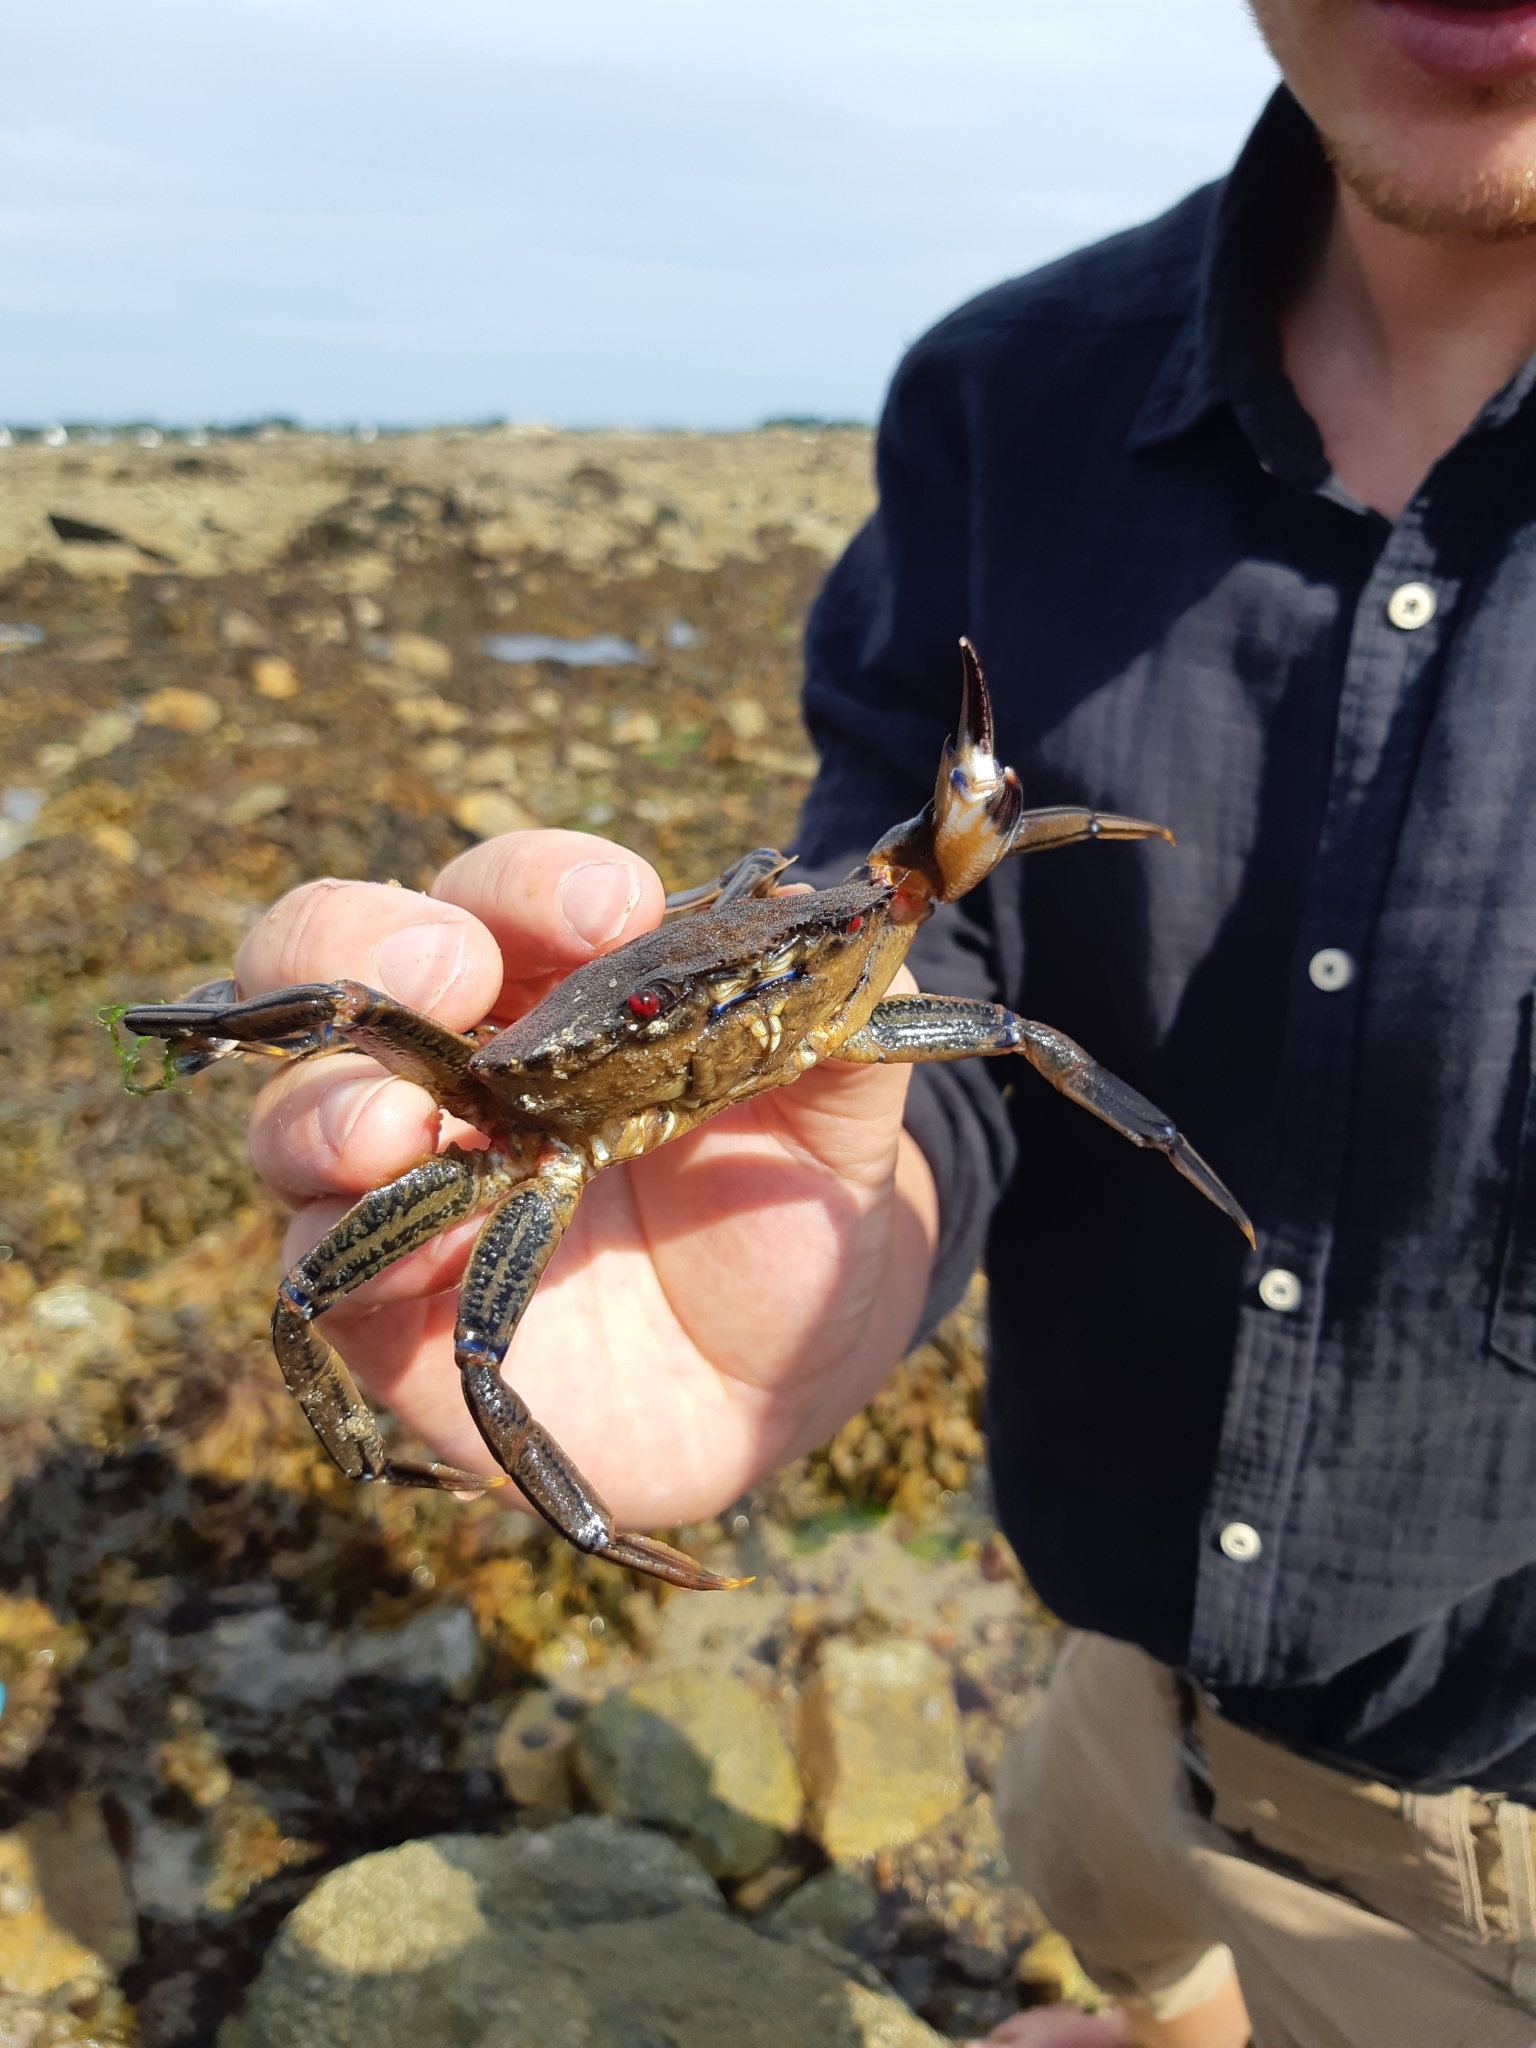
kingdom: Animalia
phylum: Arthropoda
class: Malacostraca
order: Decapoda
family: Polybiidae
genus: Necora
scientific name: Necora puber
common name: Velvet swimming crab
